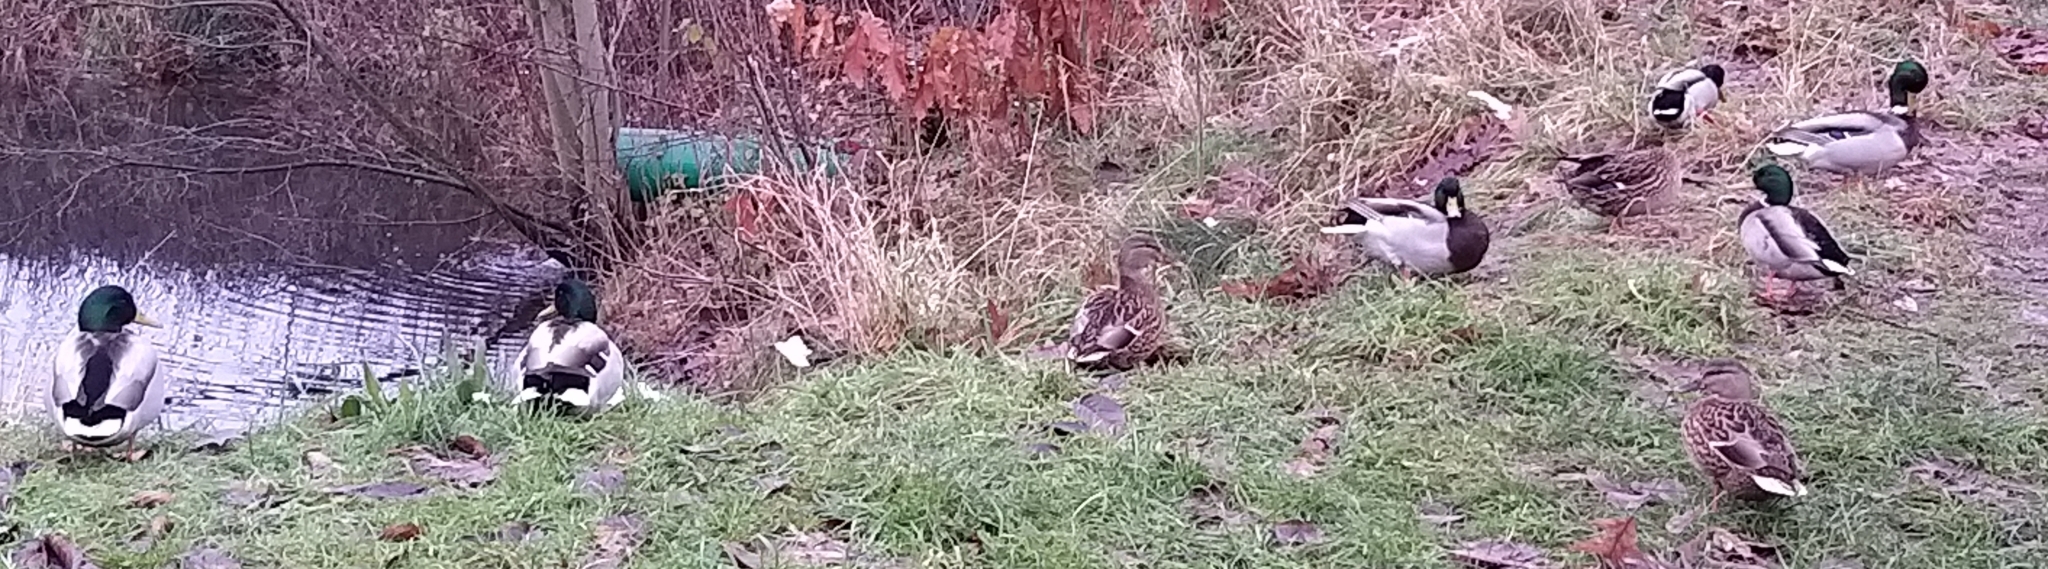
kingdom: Animalia
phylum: Chordata
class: Aves
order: Anseriformes
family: Anatidae
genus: Anas
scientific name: Anas platyrhynchos
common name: Mallard
